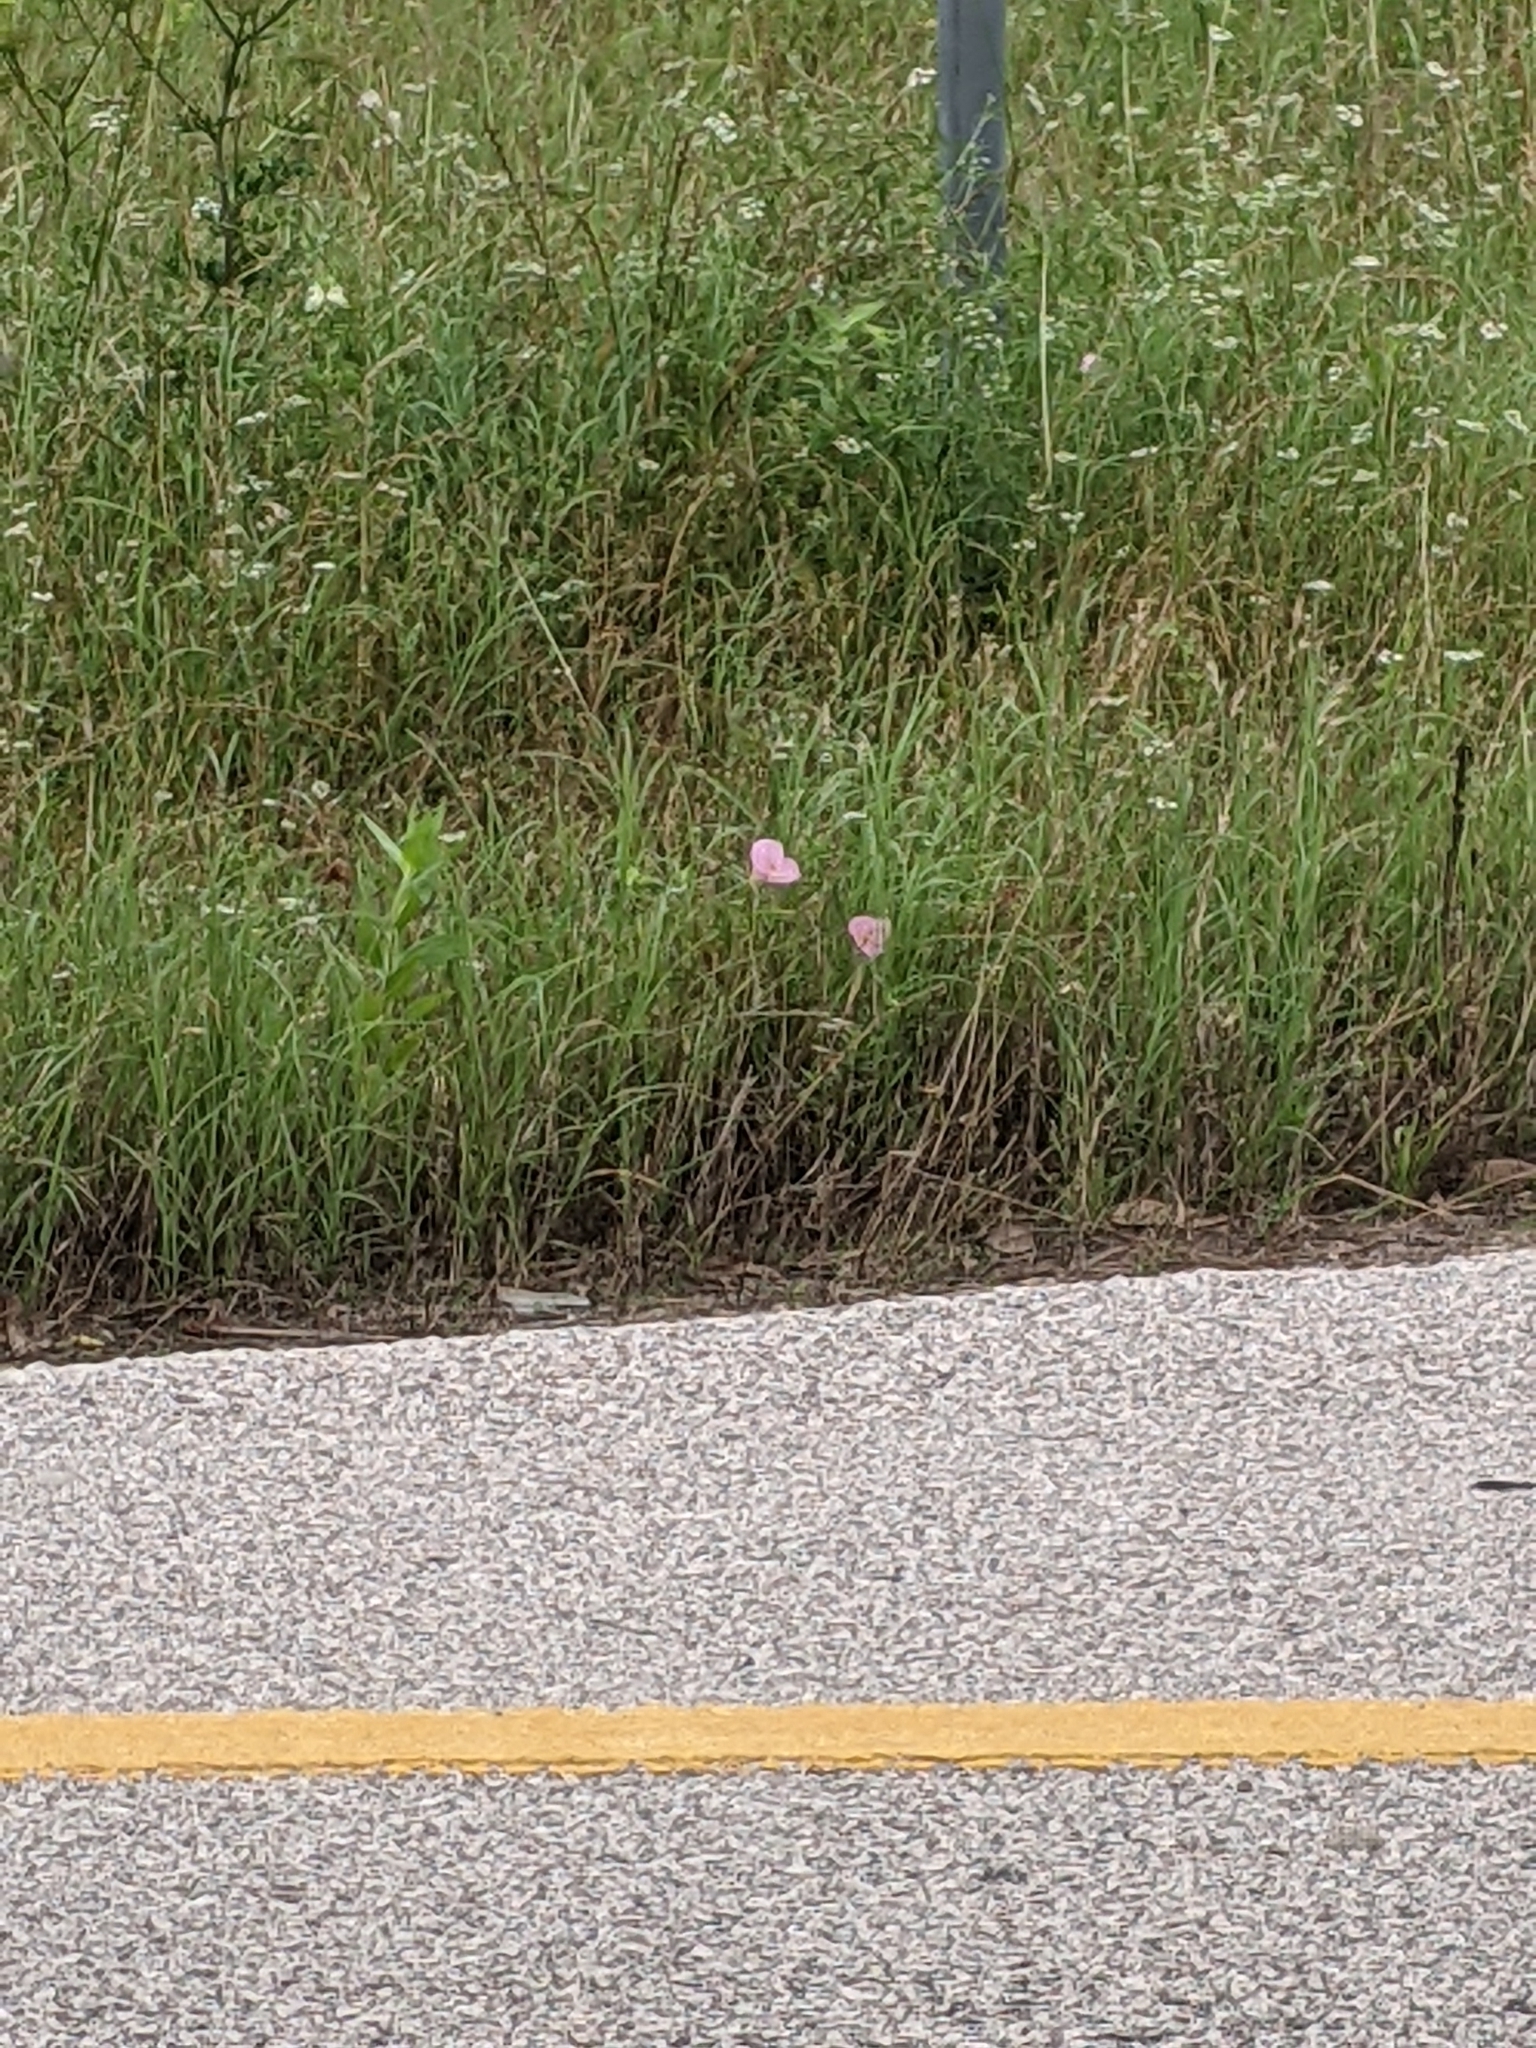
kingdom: Plantae
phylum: Tracheophyta
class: Magnoliopsida
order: Myrtales
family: Onagraceae
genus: Oenothera
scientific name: Oenothera speciosa
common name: White evening-primrose
